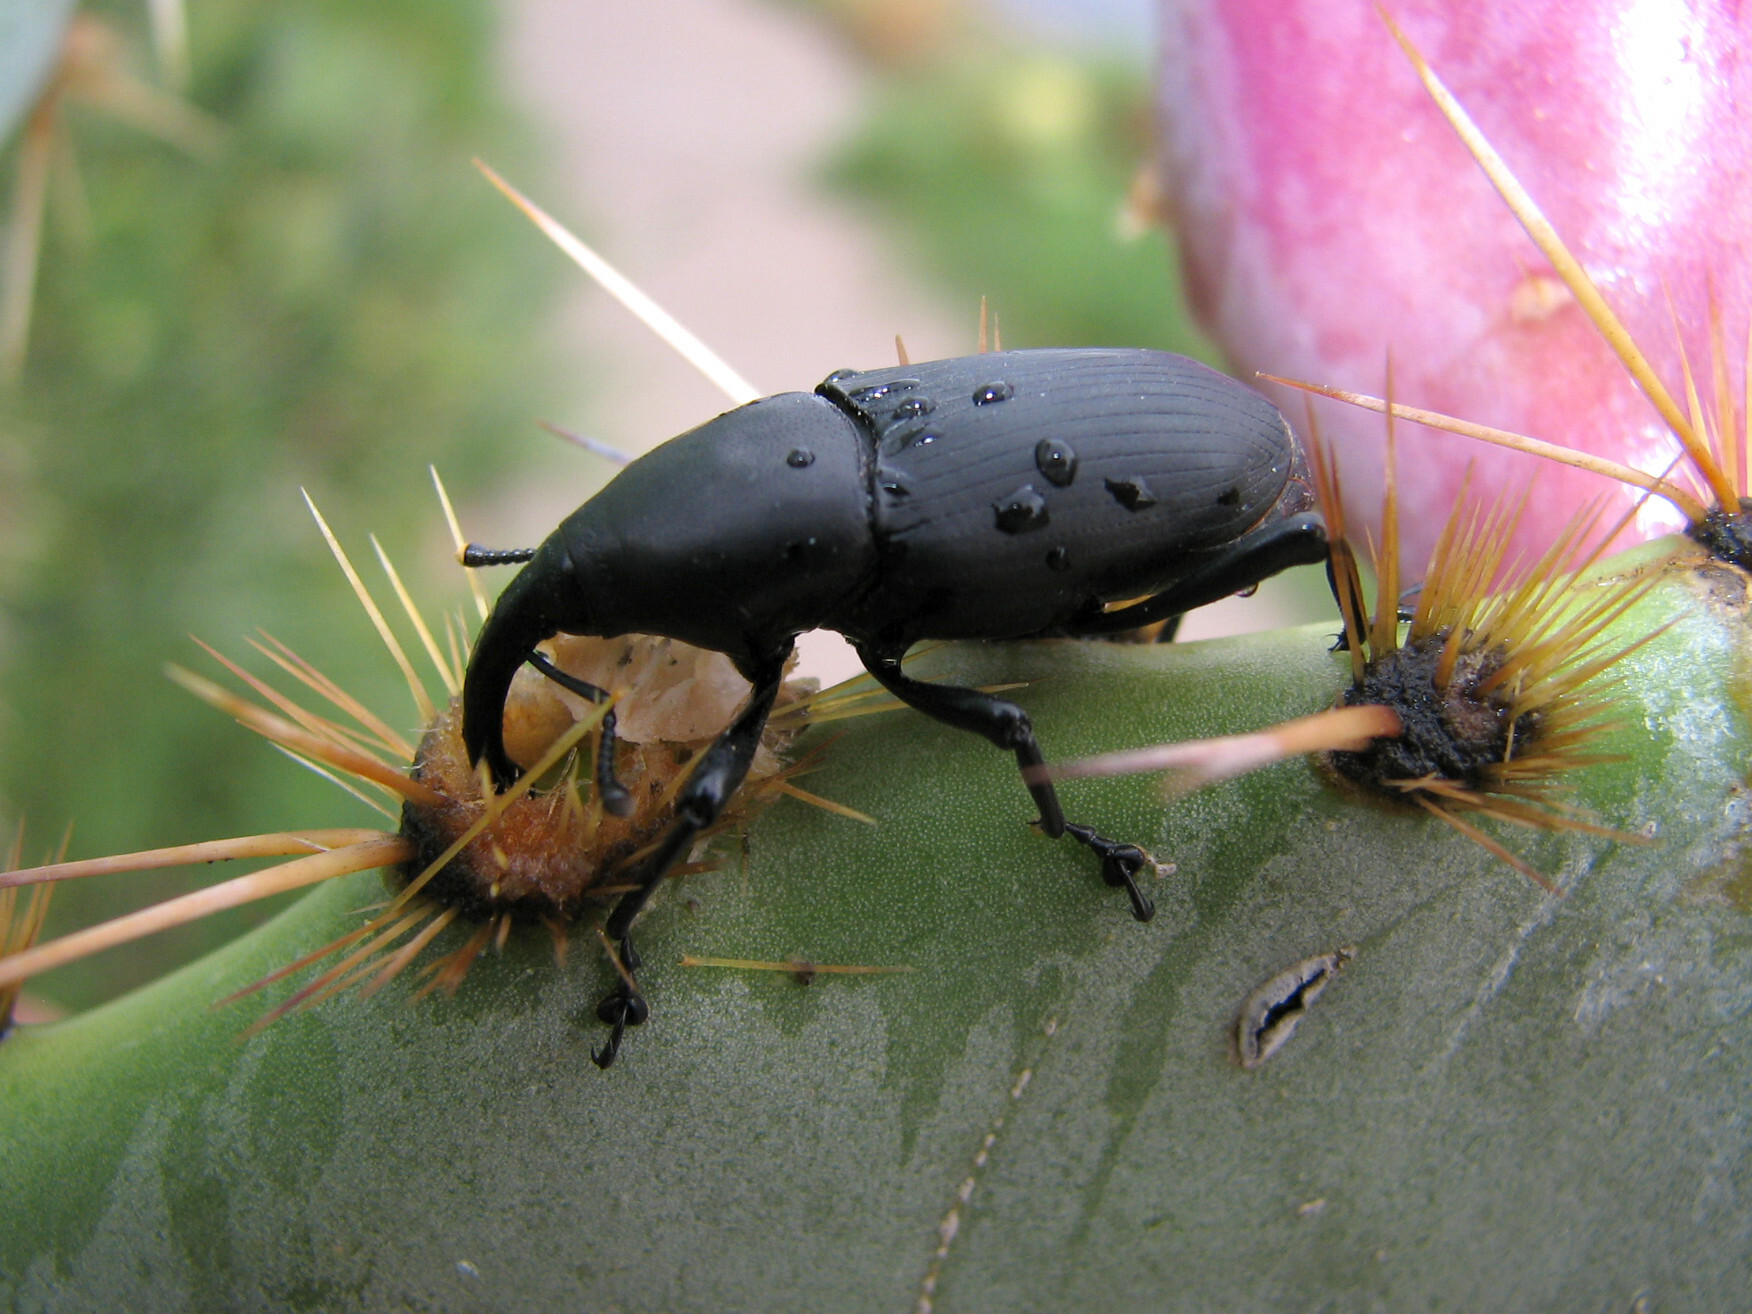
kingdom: Animalia
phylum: Arthropoda
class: Insecta
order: Coleoptera
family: Dryophthoridae
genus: Cactophagus
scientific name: Cactophagus spinolae
